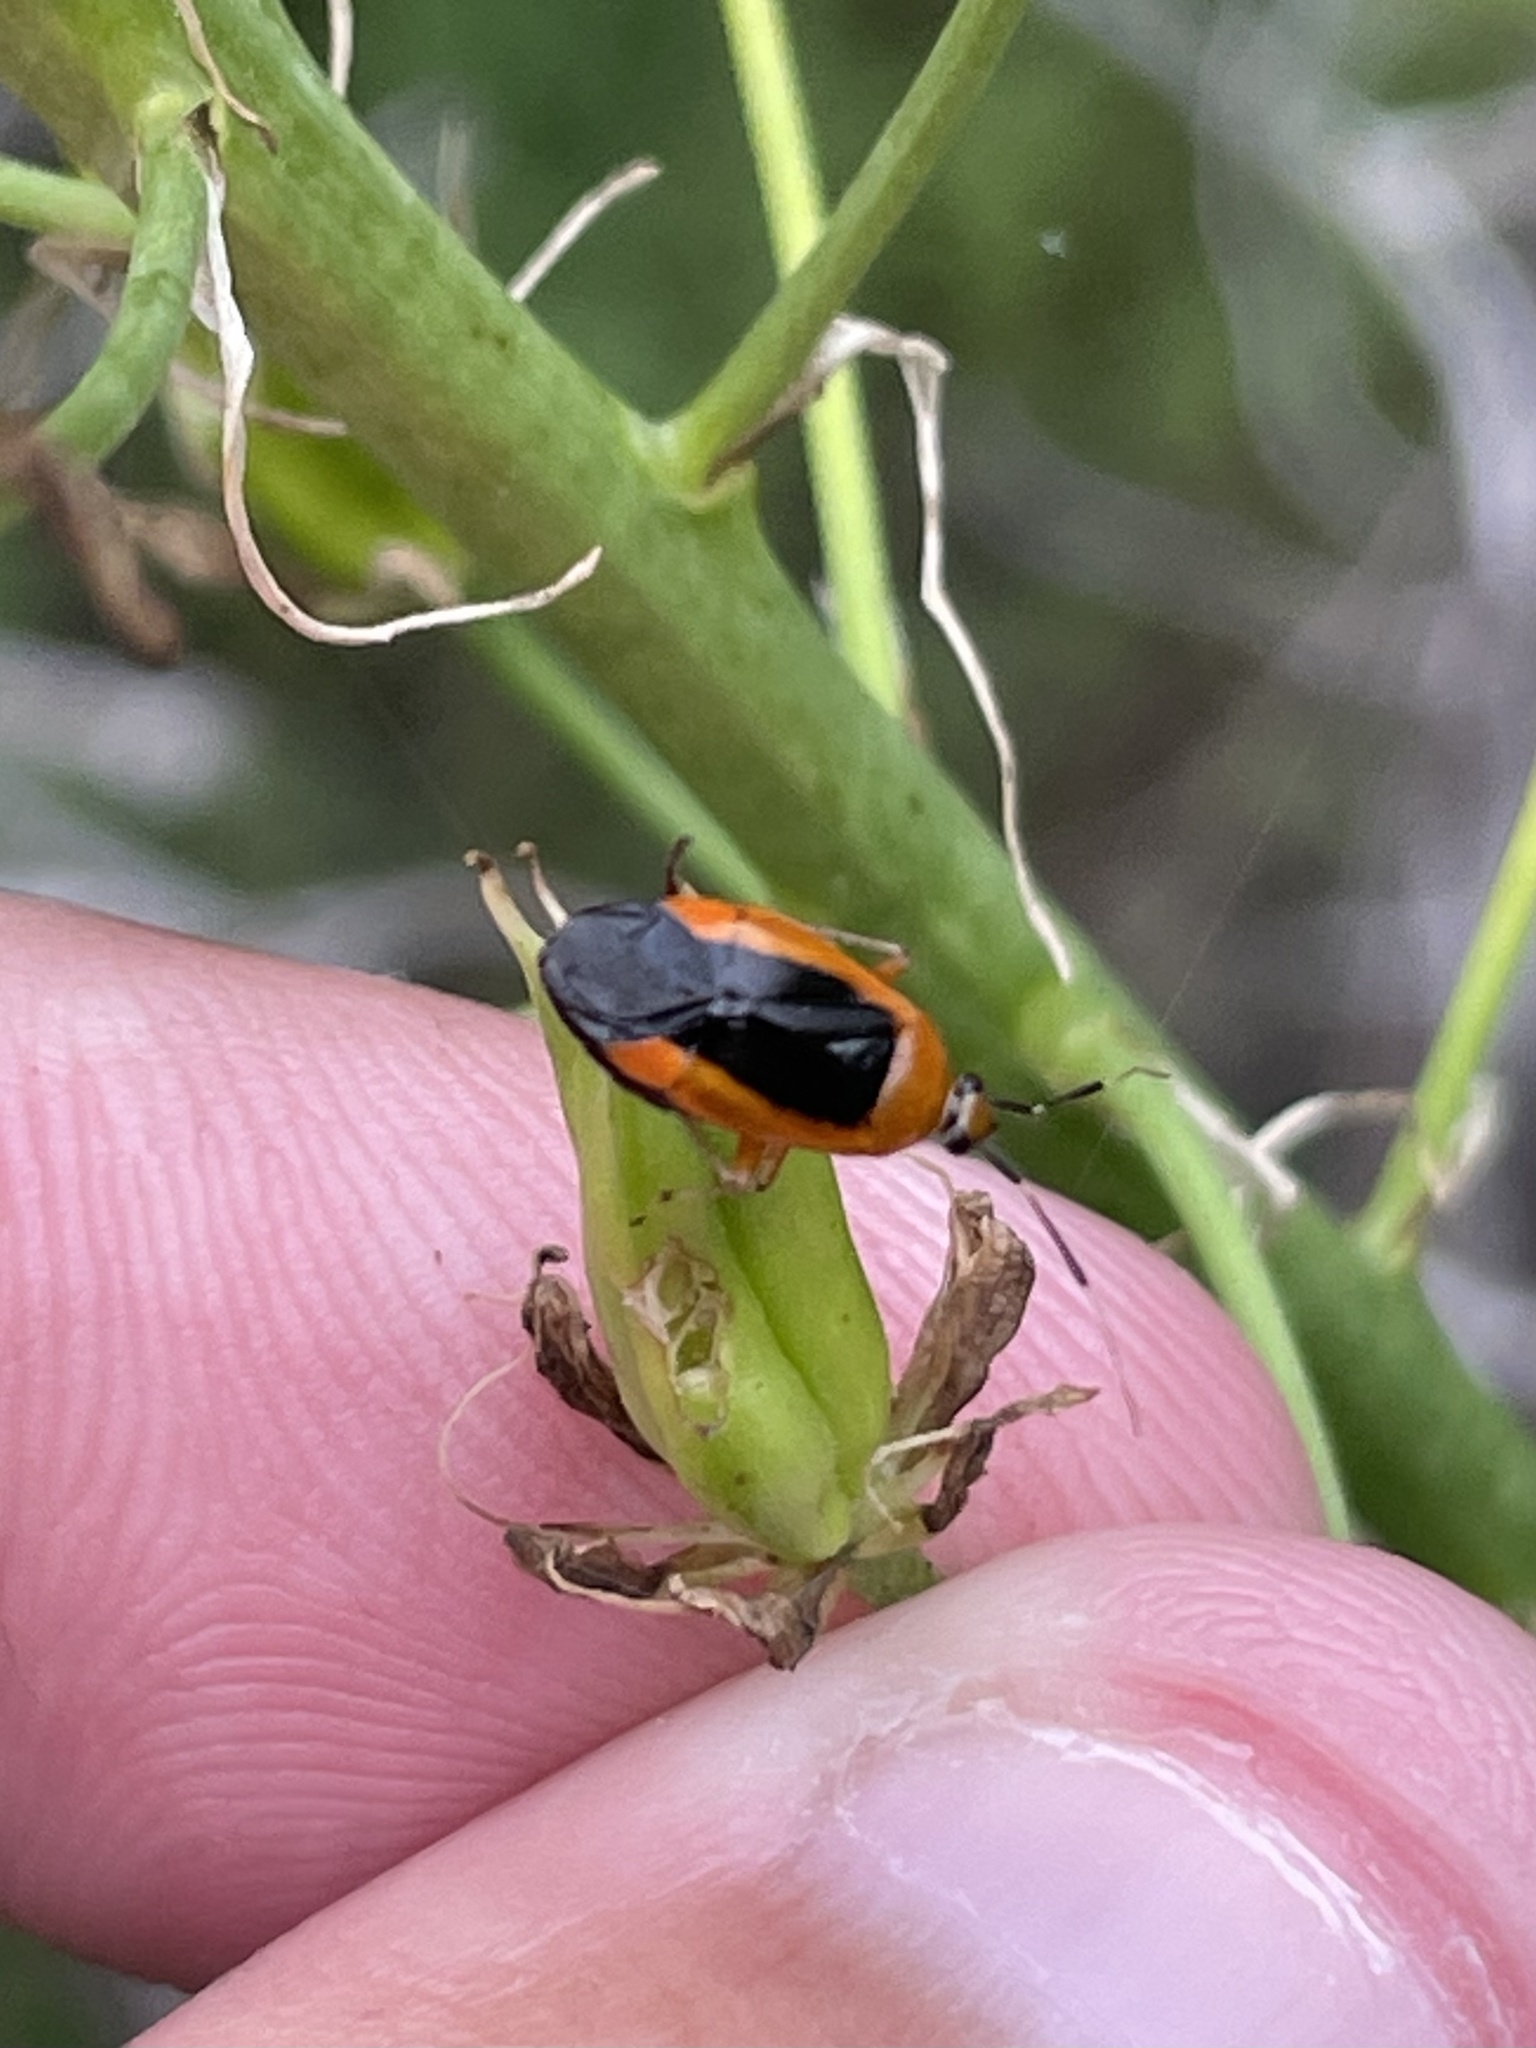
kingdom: Animalia
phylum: Arthropoda
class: Insecta
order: Hemiptera
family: Miridae
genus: Metriorrhynchomiris
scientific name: Metriorrhynchomiris dislocatus
